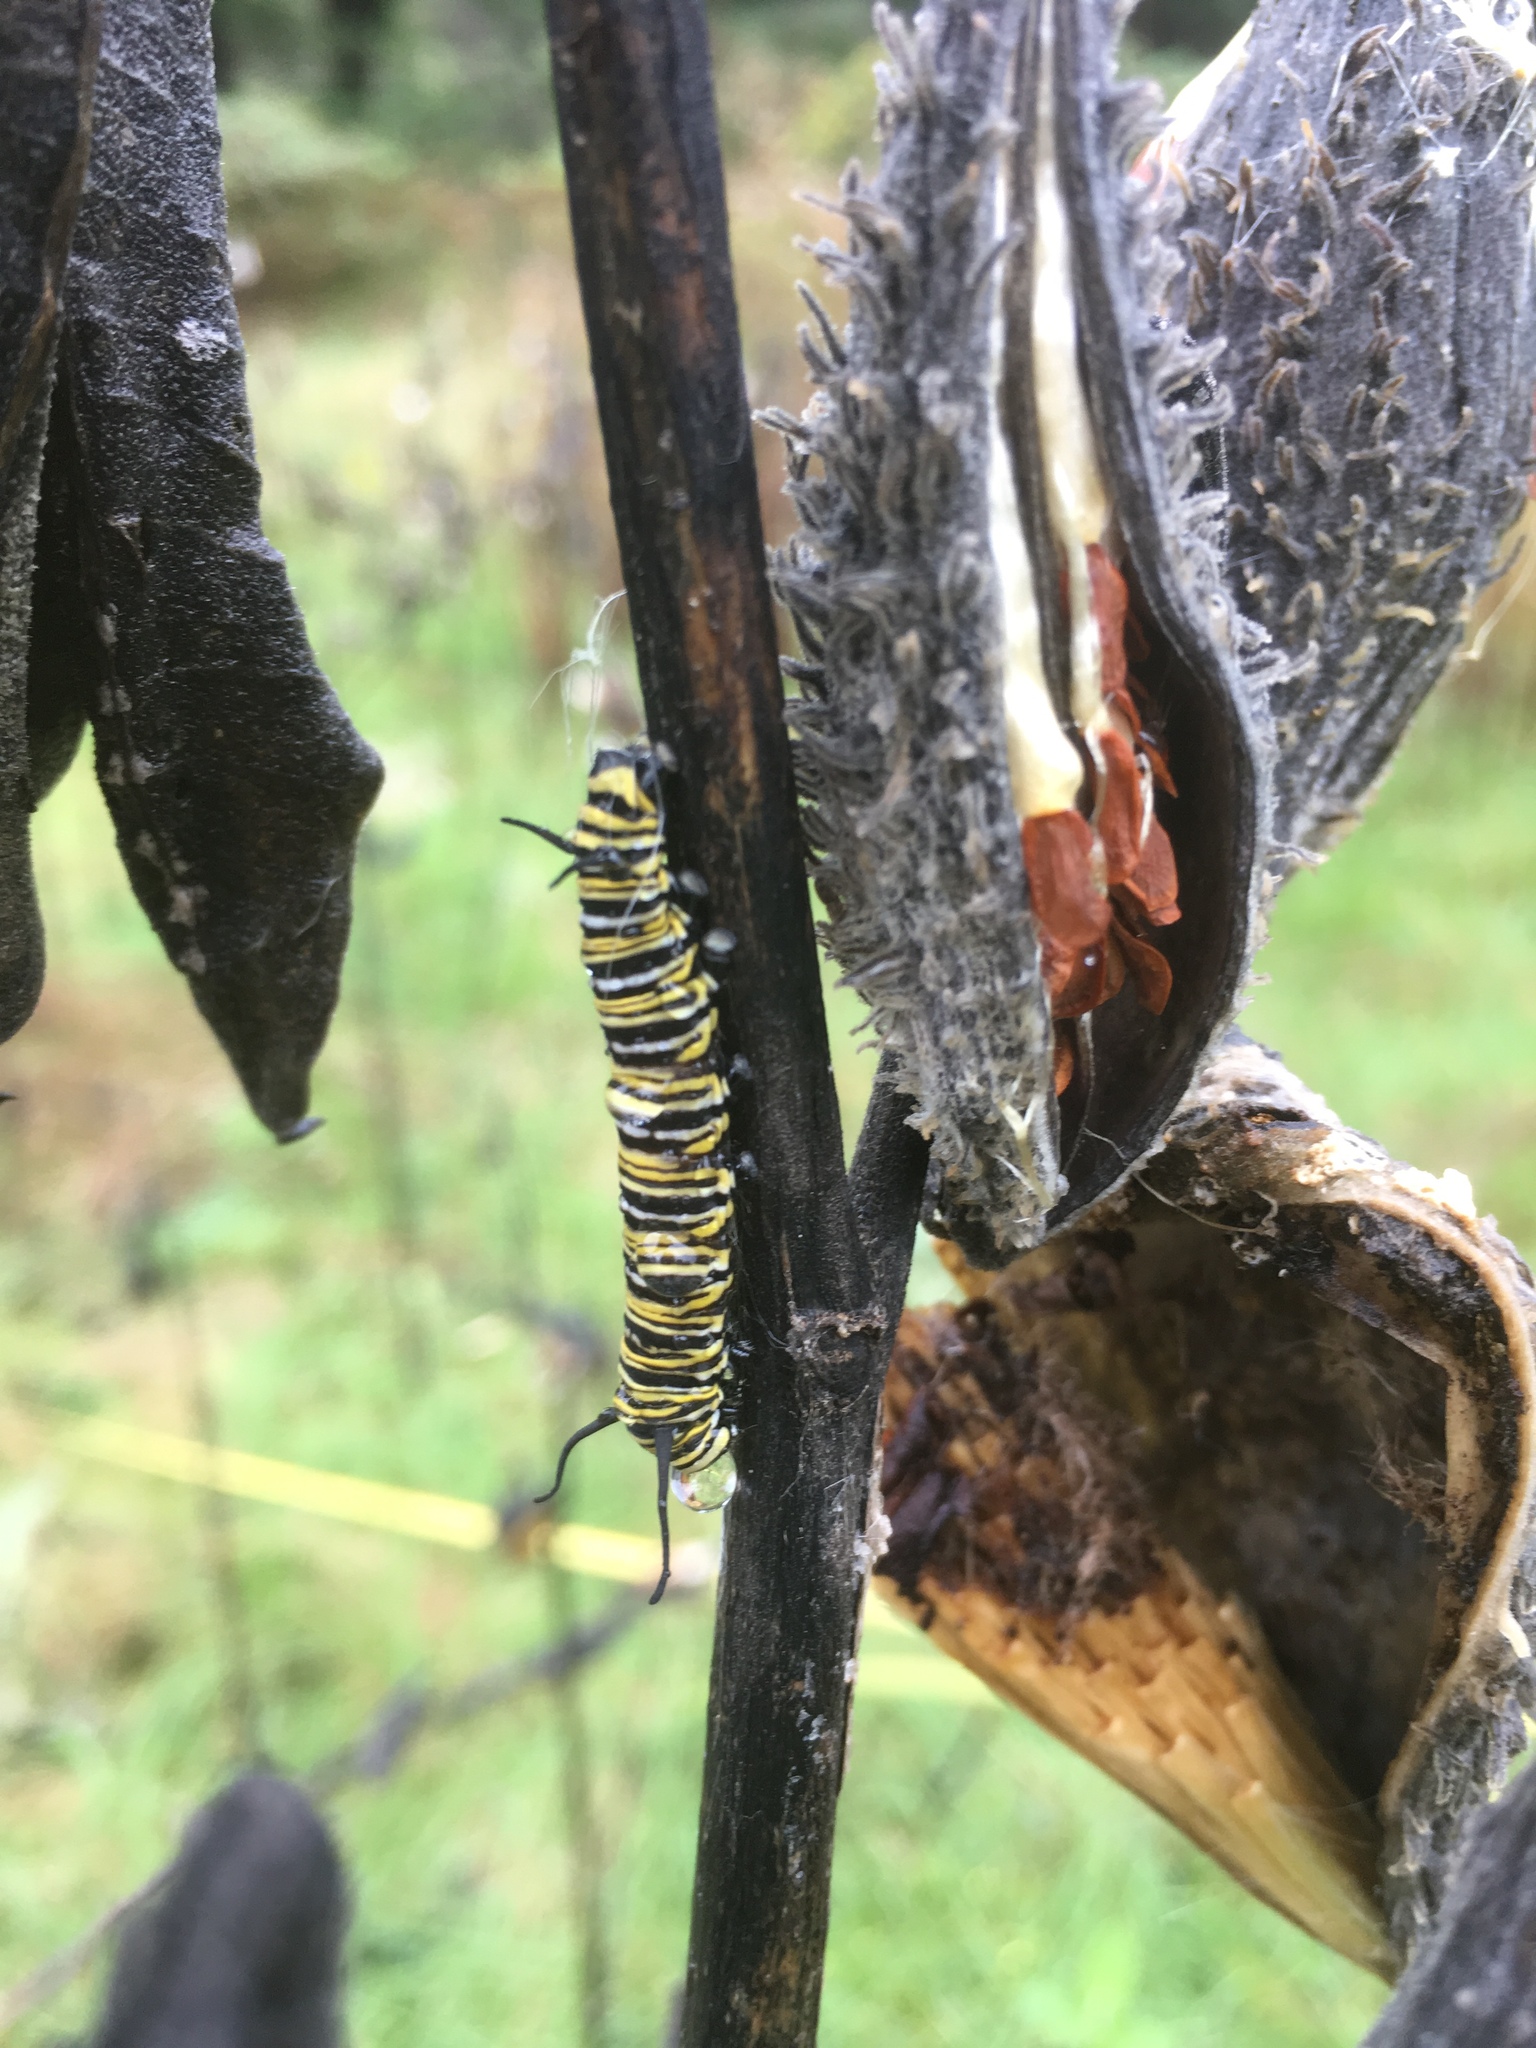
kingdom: Animalia
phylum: Arthropoda
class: Insecta
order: Lepidoptera
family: Nymphalidae
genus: Danaus
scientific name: Danaus plexippus
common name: Monarch
